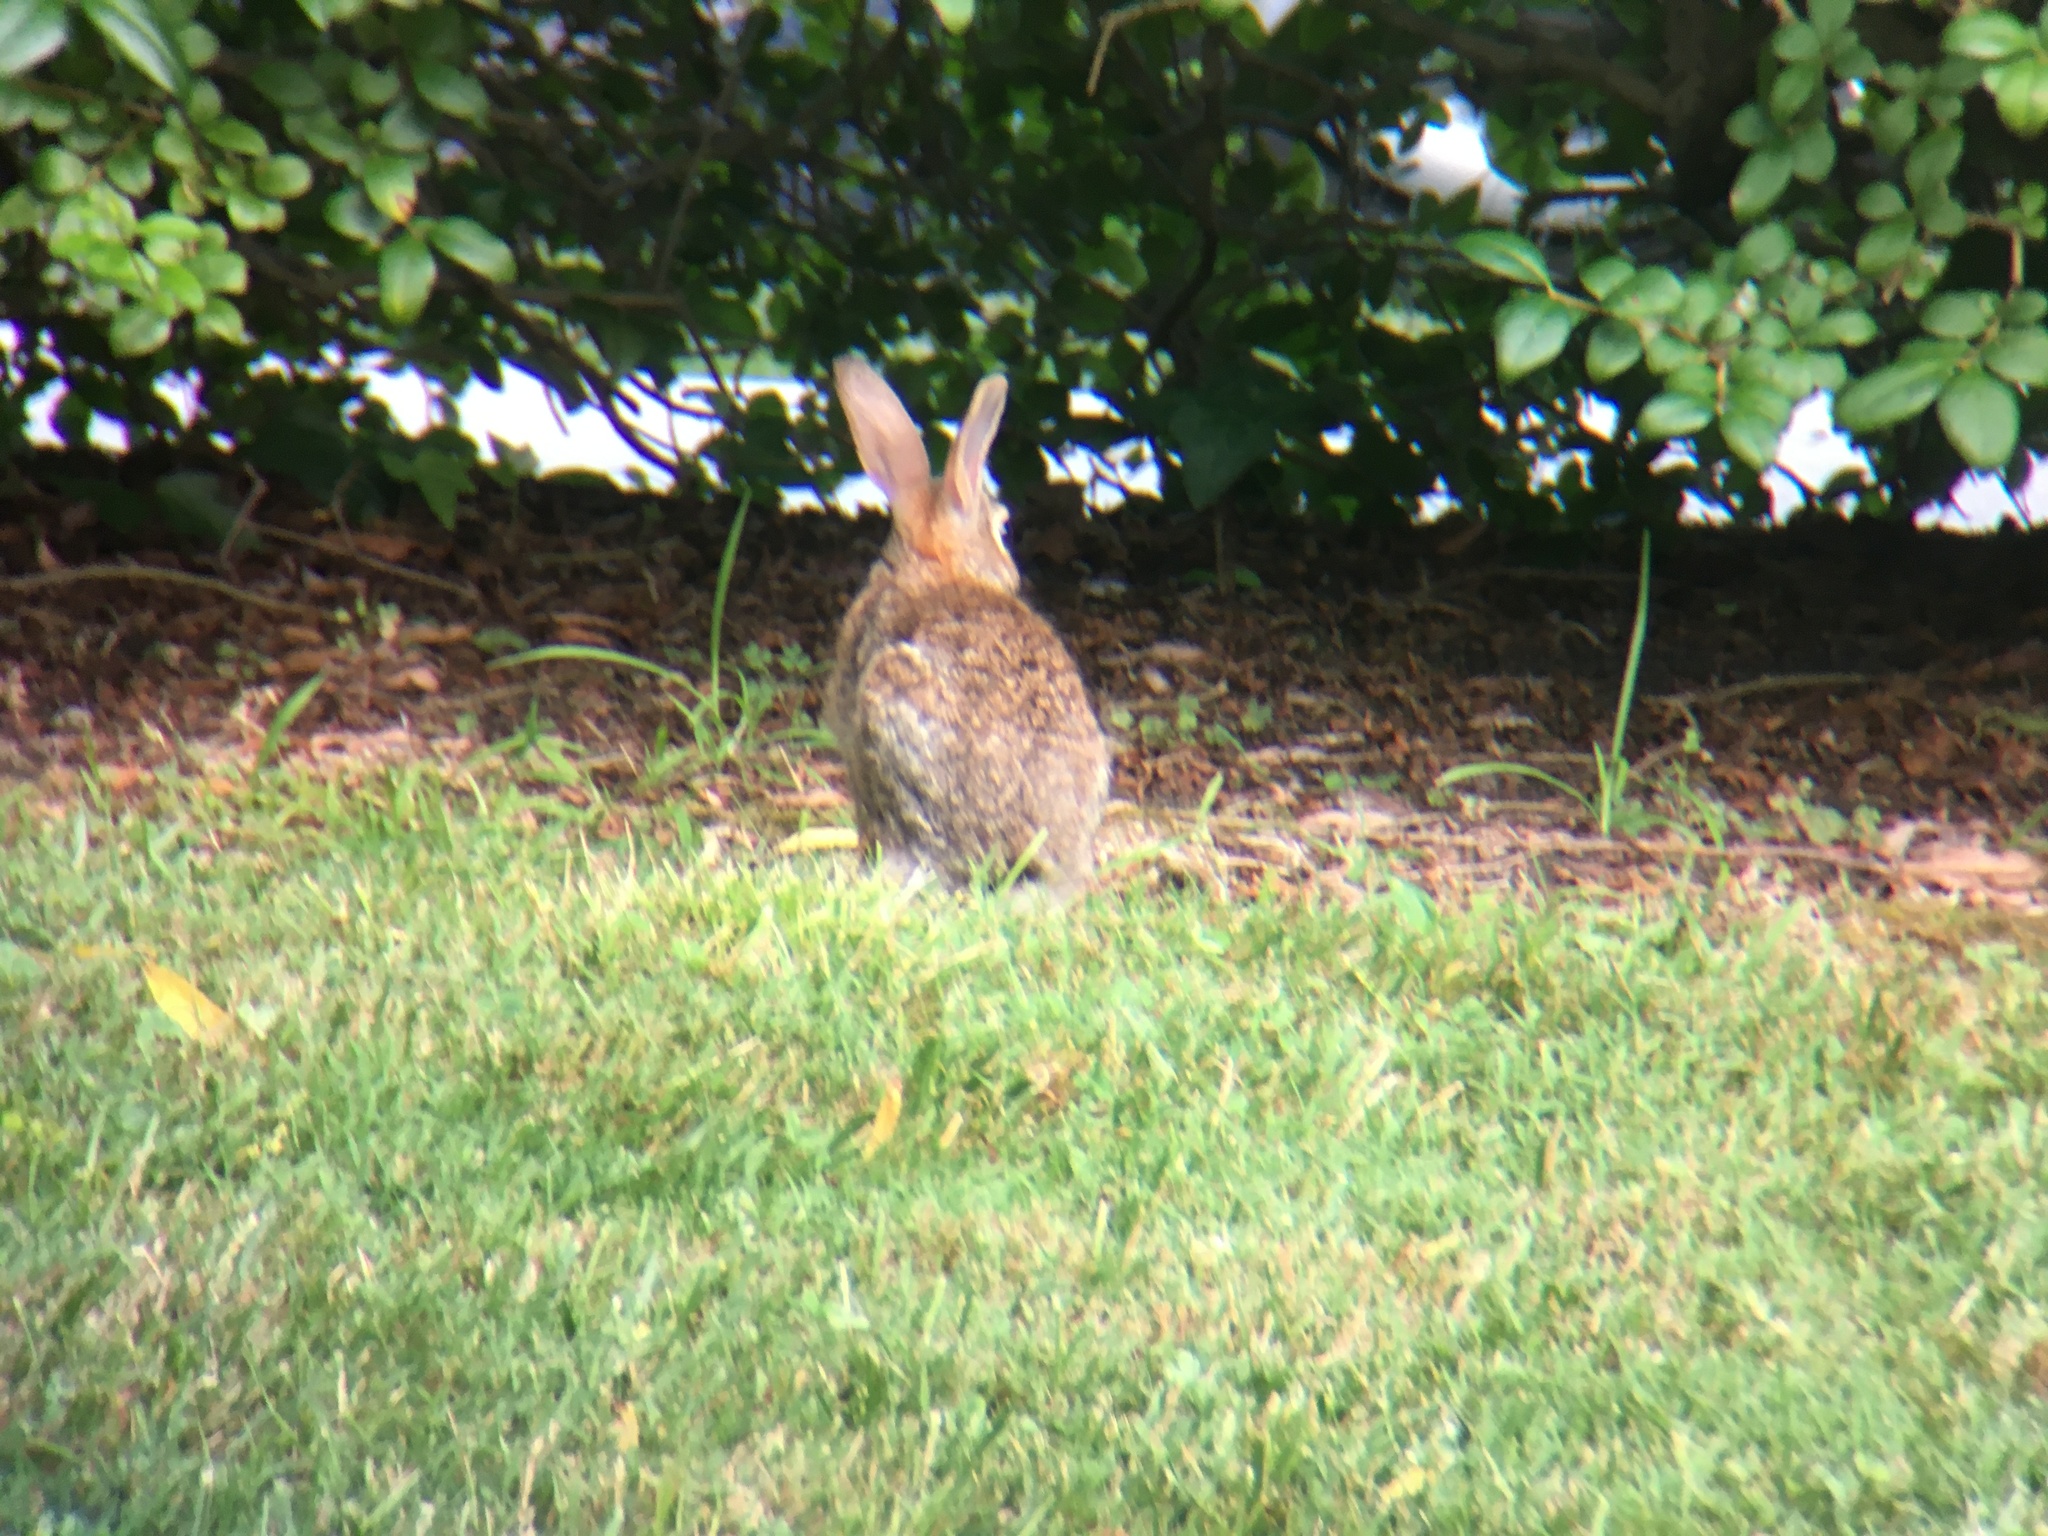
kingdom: Animalia
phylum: Chordata
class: Mammalia
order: Lagomorpha
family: Leporidae
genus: Sylvilagus
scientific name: Sylvilagus floridanus
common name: Eastern cottontail
